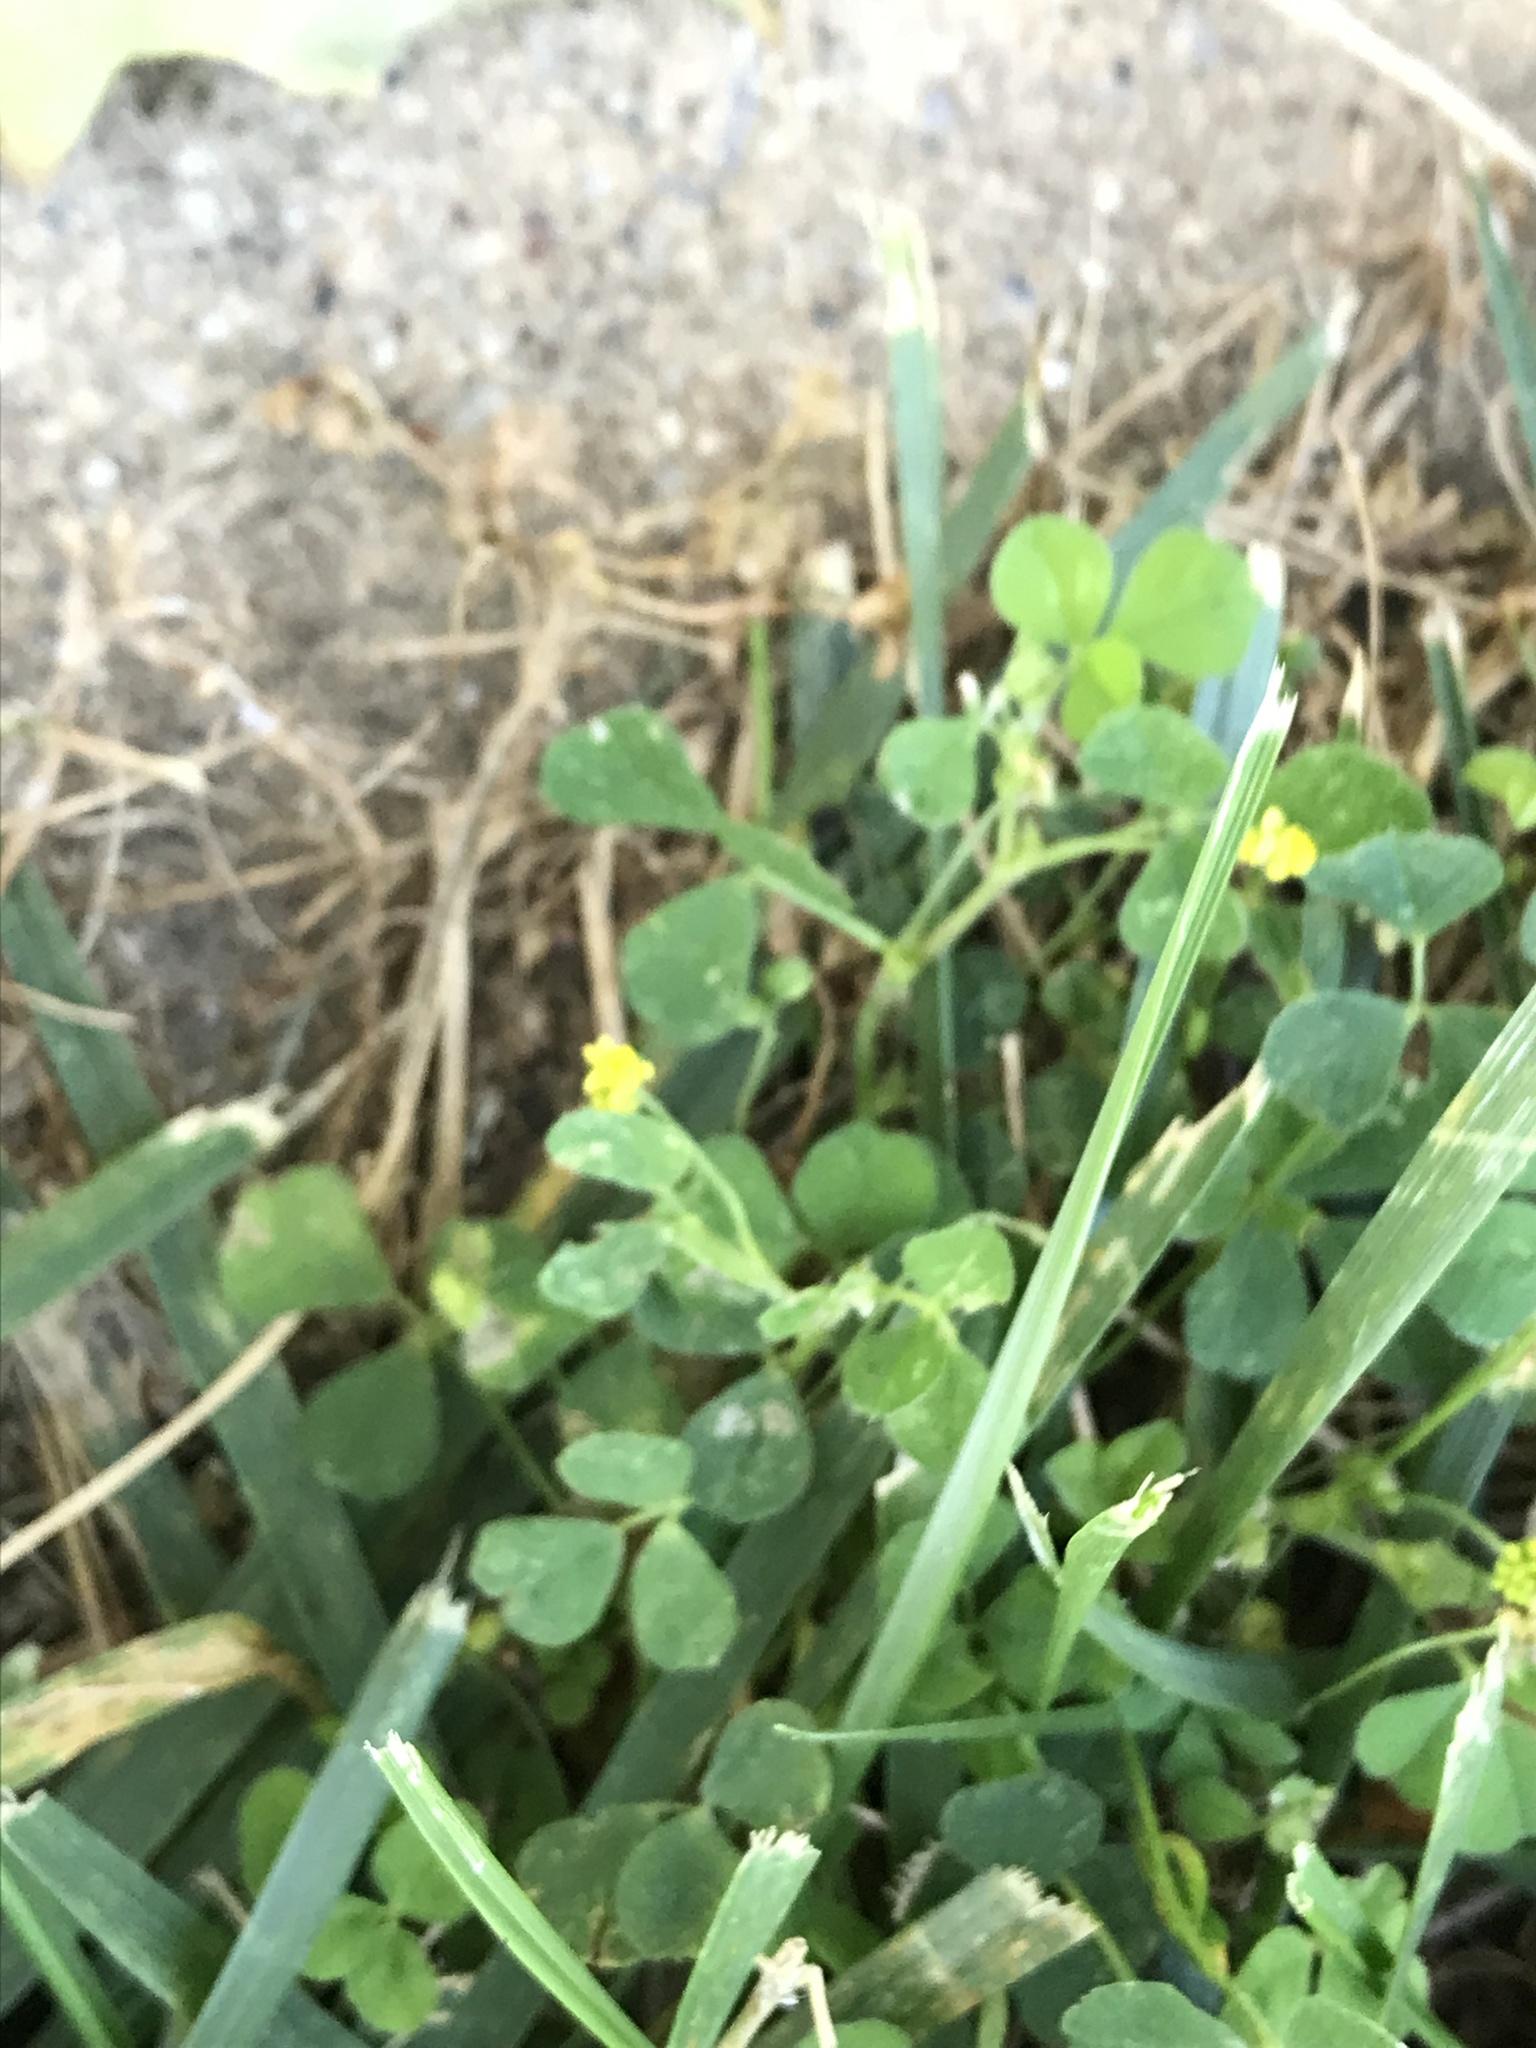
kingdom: Plantae
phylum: Tracheophyta
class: Magnoliopsida
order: Fabales
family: Fabaceae
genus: Medicago
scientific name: Medicago lupulina
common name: Black medick
